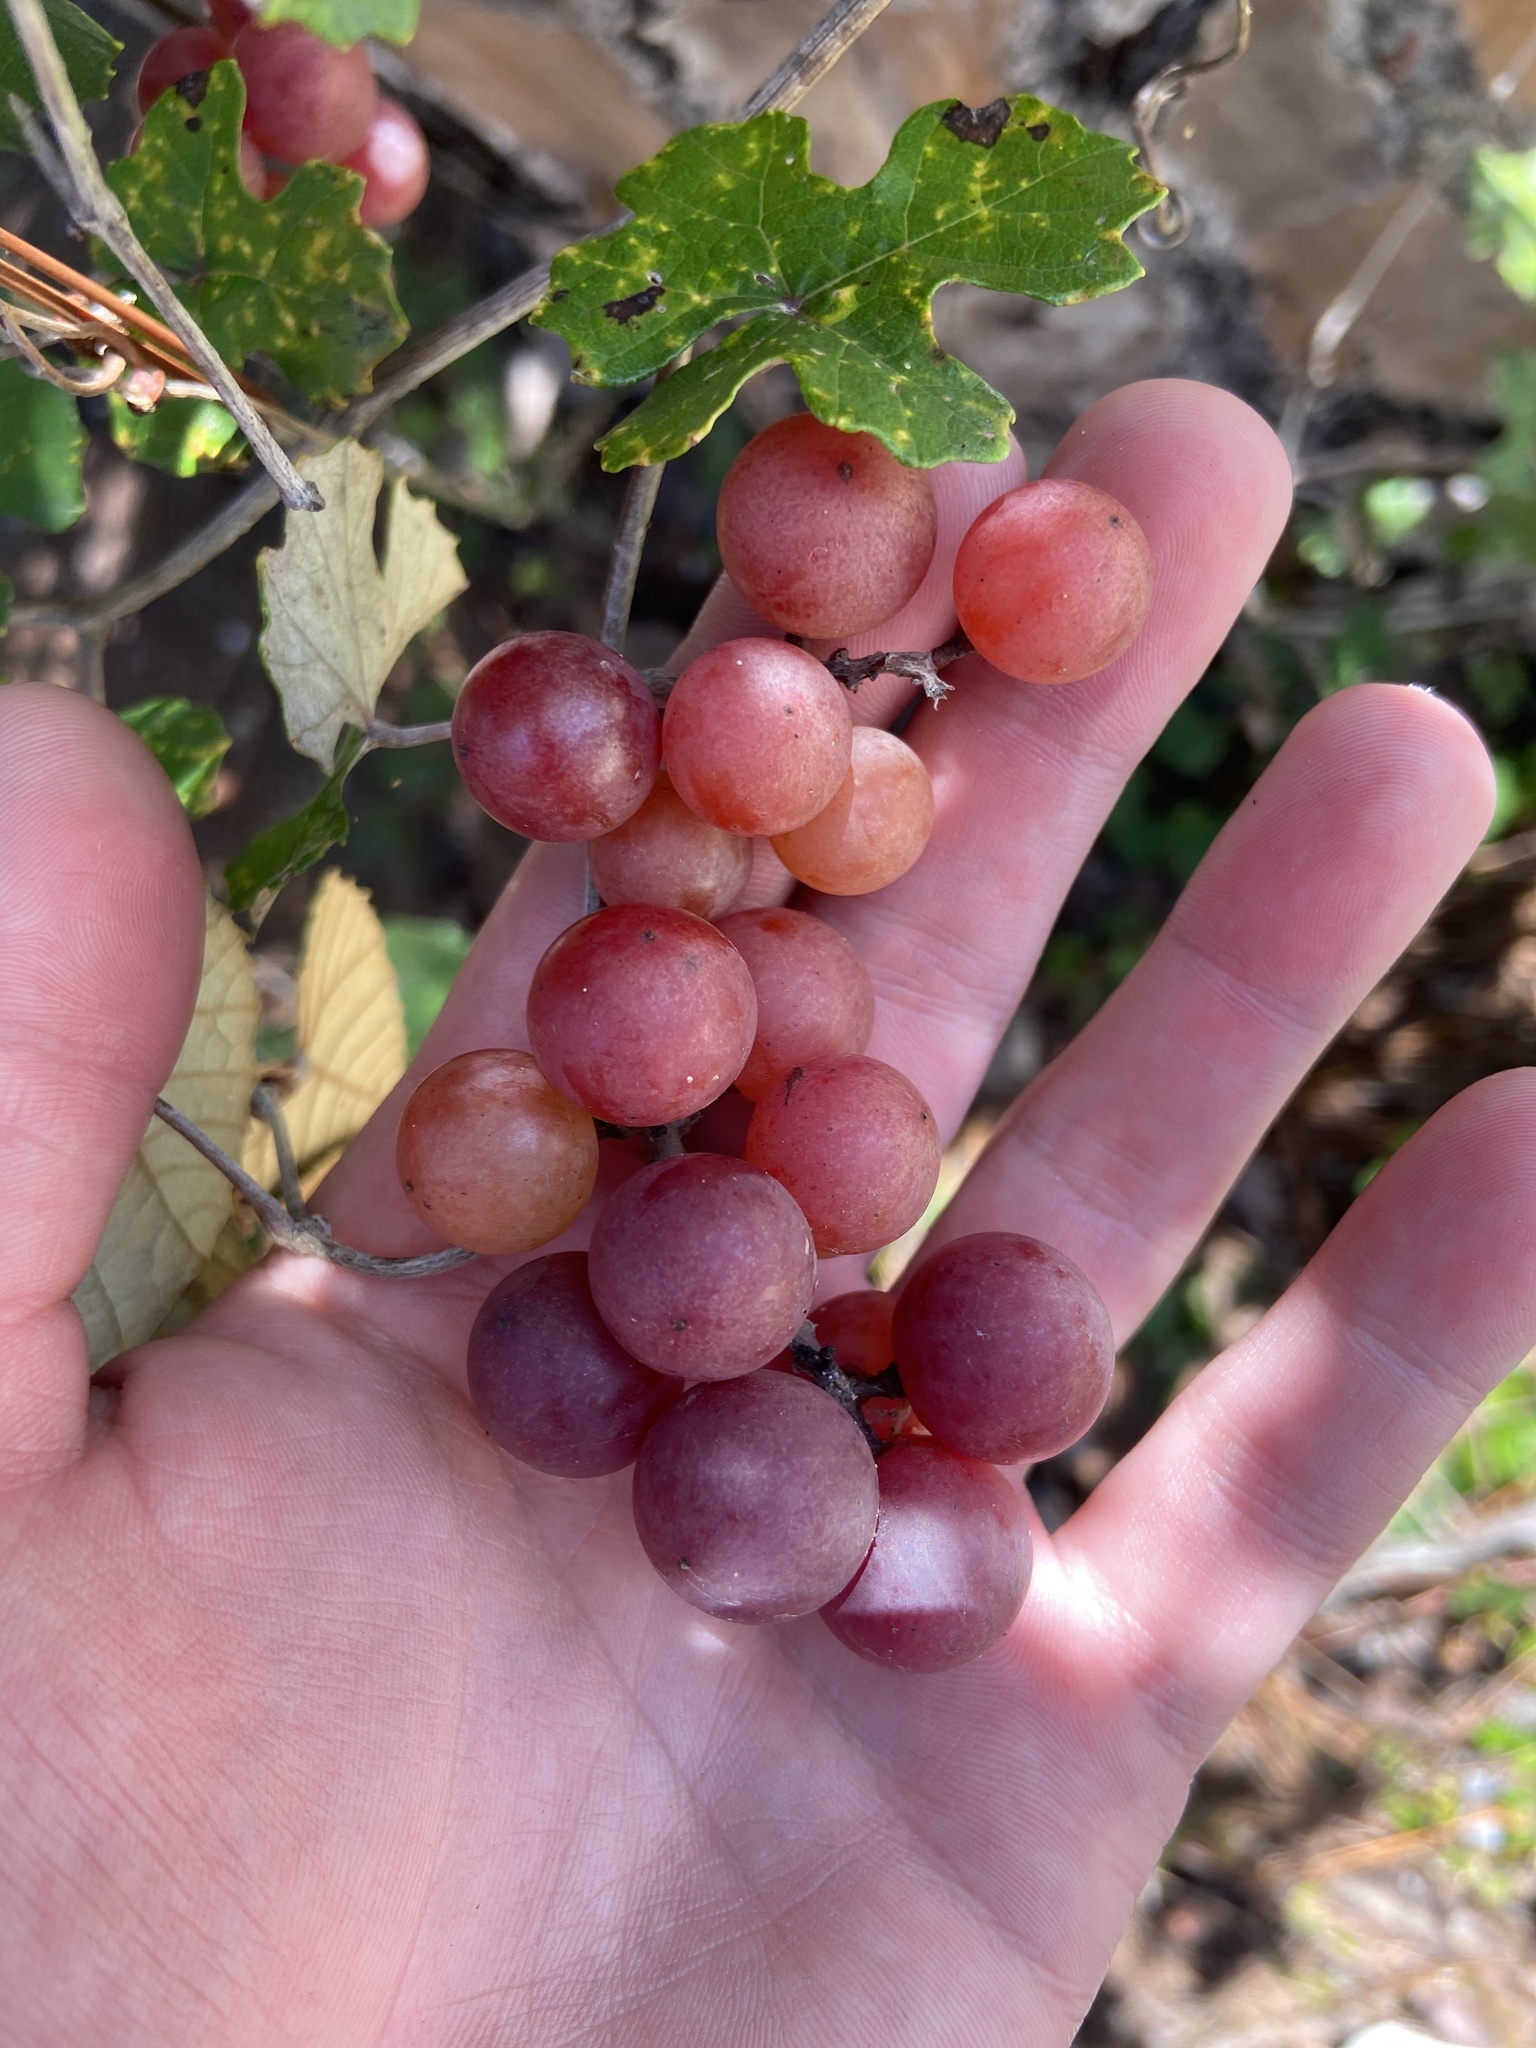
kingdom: Plantae
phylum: Tracheophyta
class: Magnoliopsida
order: Vitales
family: Vitaceae
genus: Vitis
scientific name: Vitis shuttleworthii
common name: Caloosa grape
